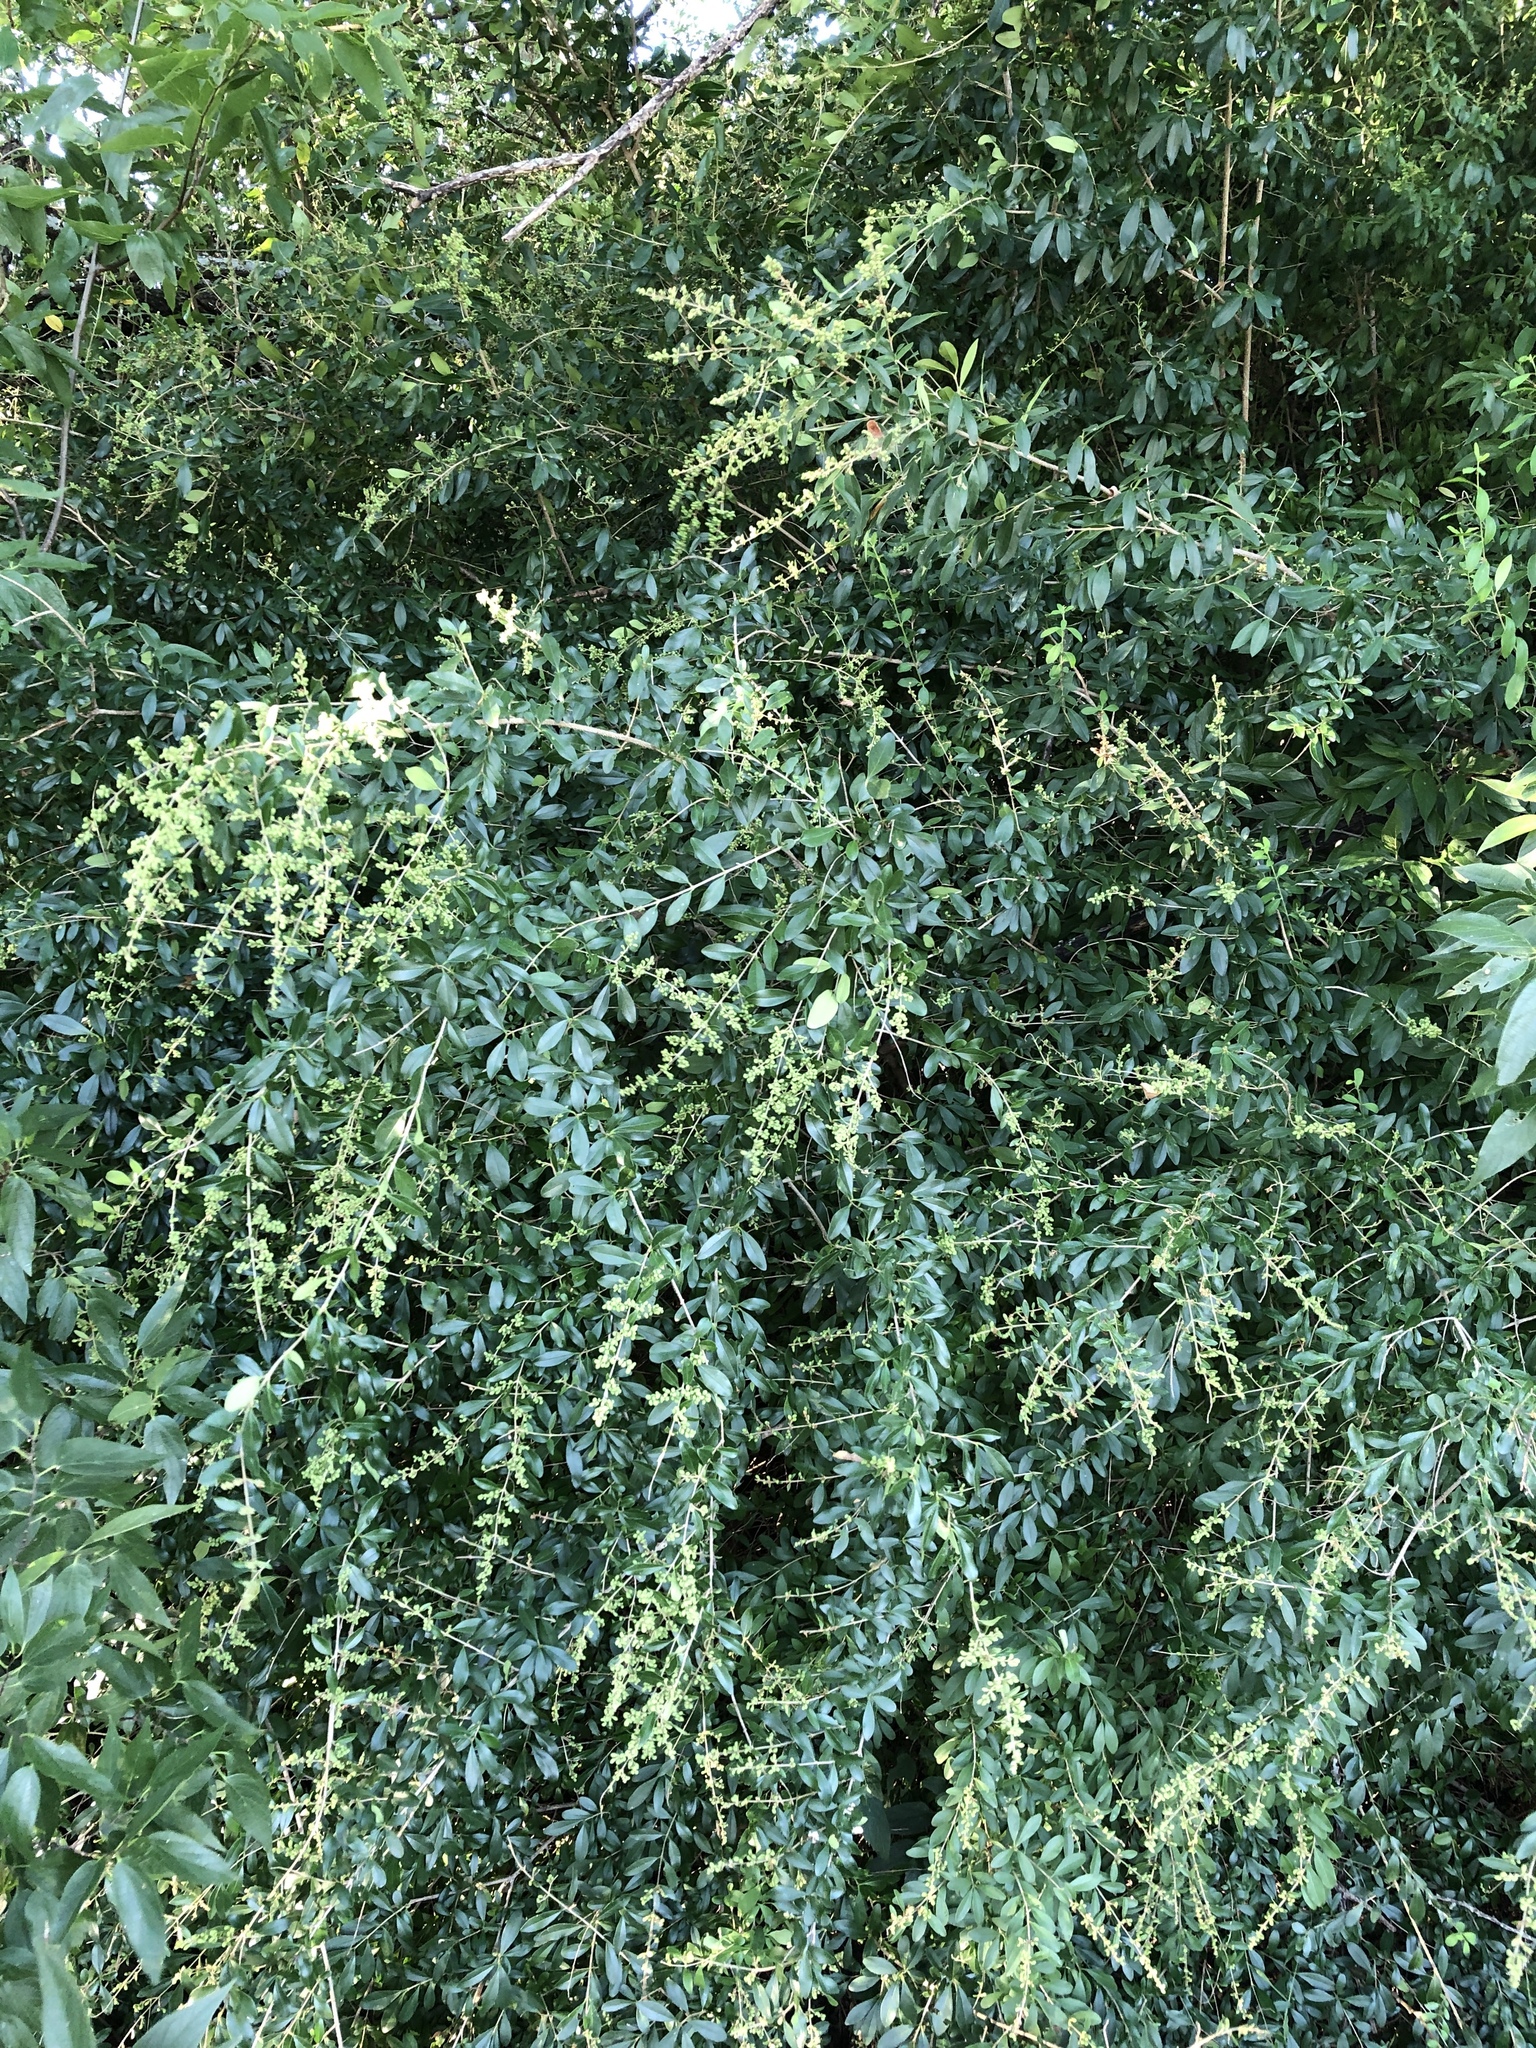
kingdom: Plantae
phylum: Tracheophyta
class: Magnoliopsida
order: Lamiales
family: Oleaceae
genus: Ligustrum
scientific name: Ligustrum quihoui
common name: Waxyleaf privet
